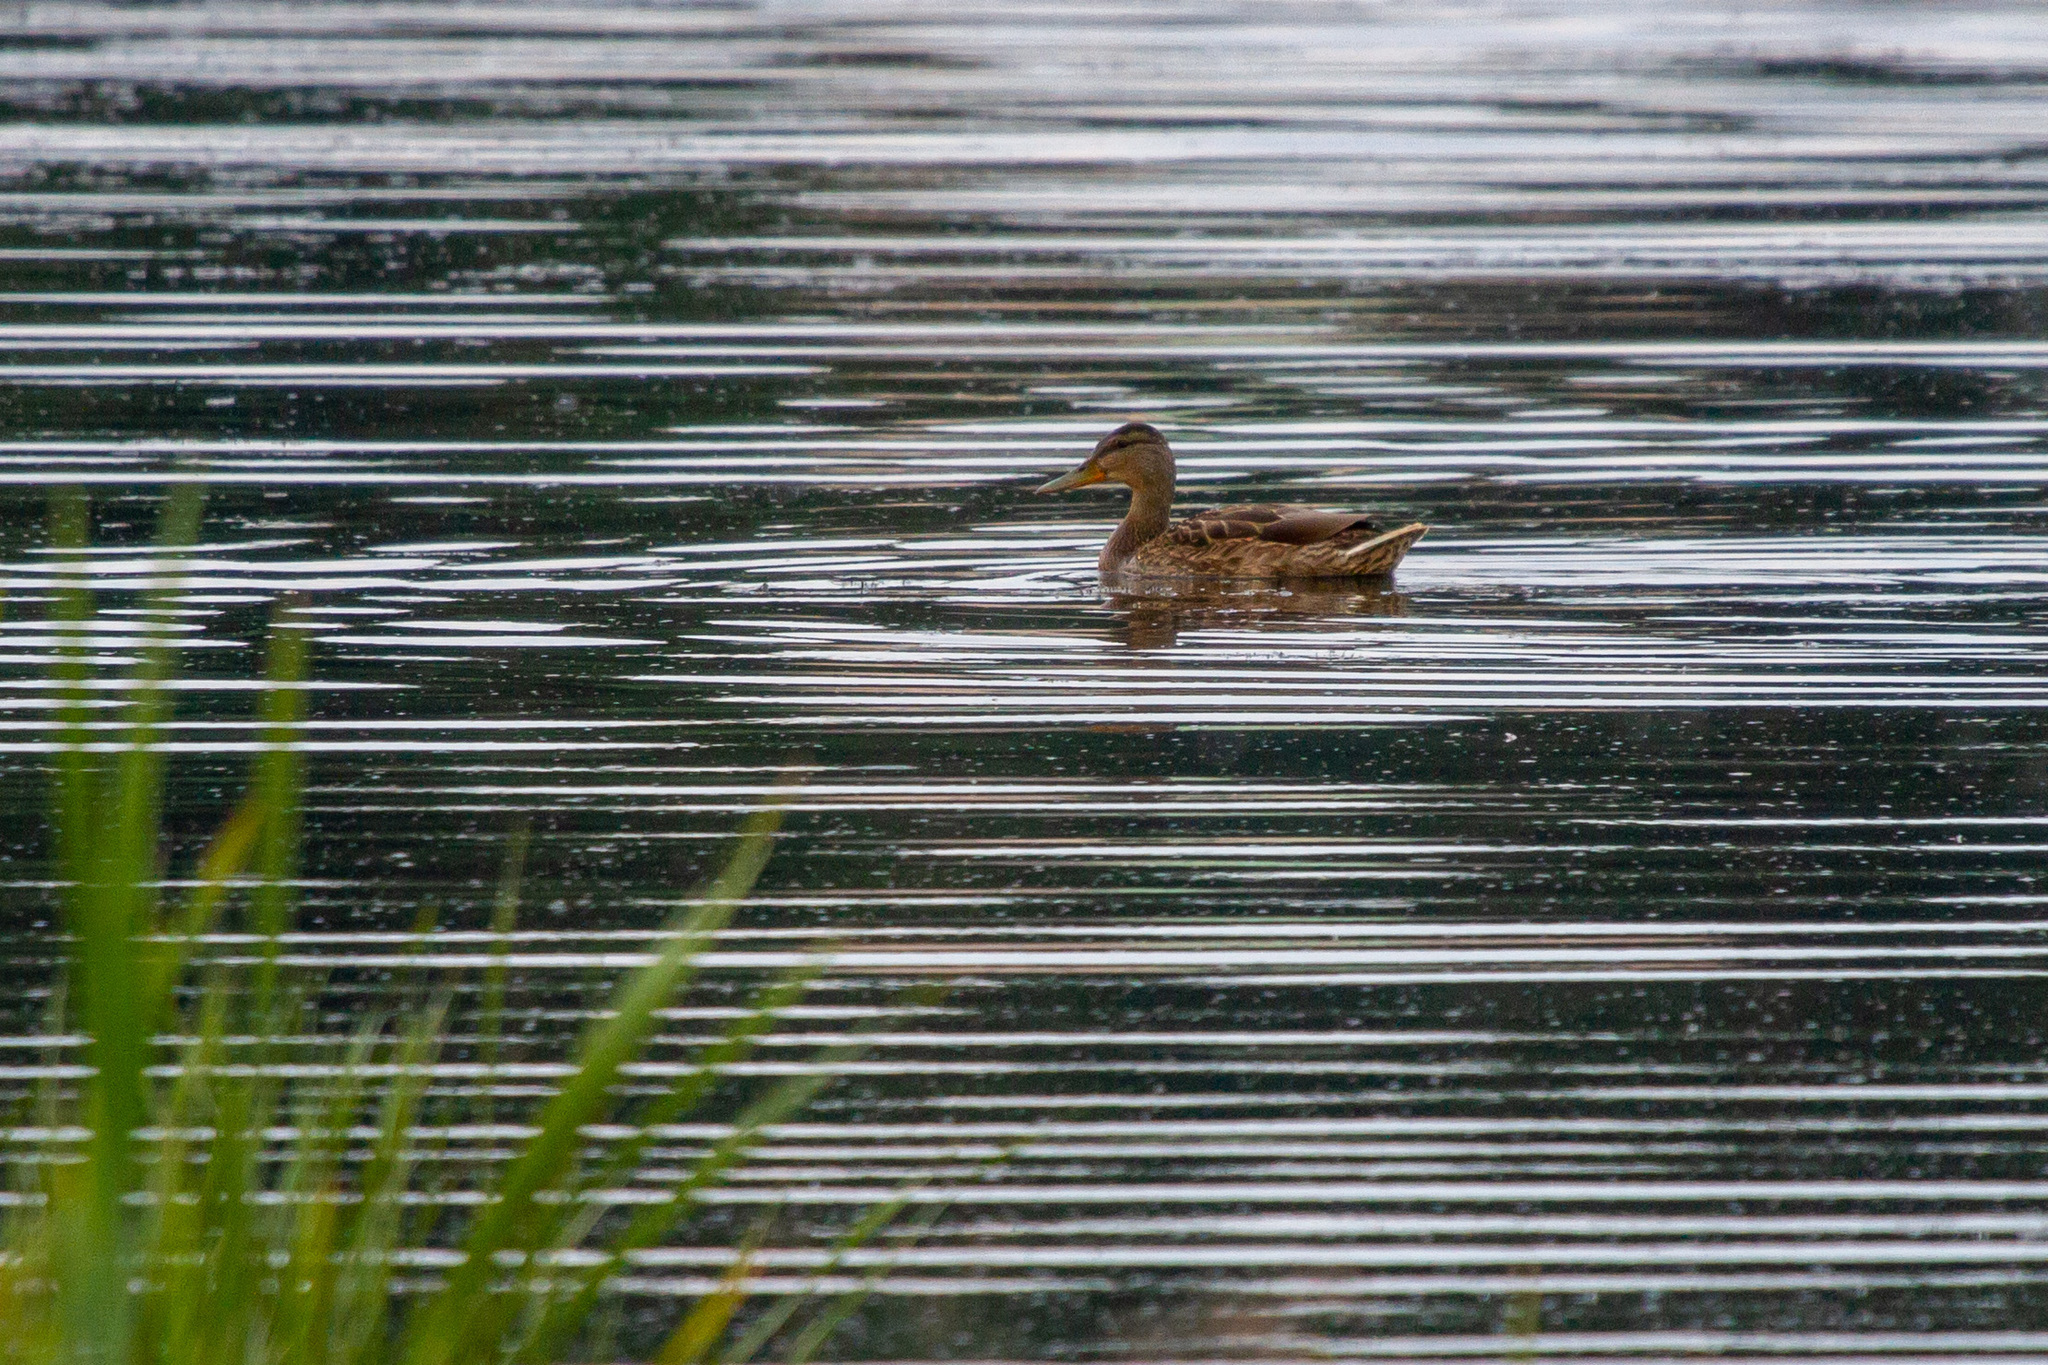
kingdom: Animalia
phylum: Chordata
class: Aves
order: Anseriformes
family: Anatidae
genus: Anas
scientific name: Anas platyrhynchos
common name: Mallard
